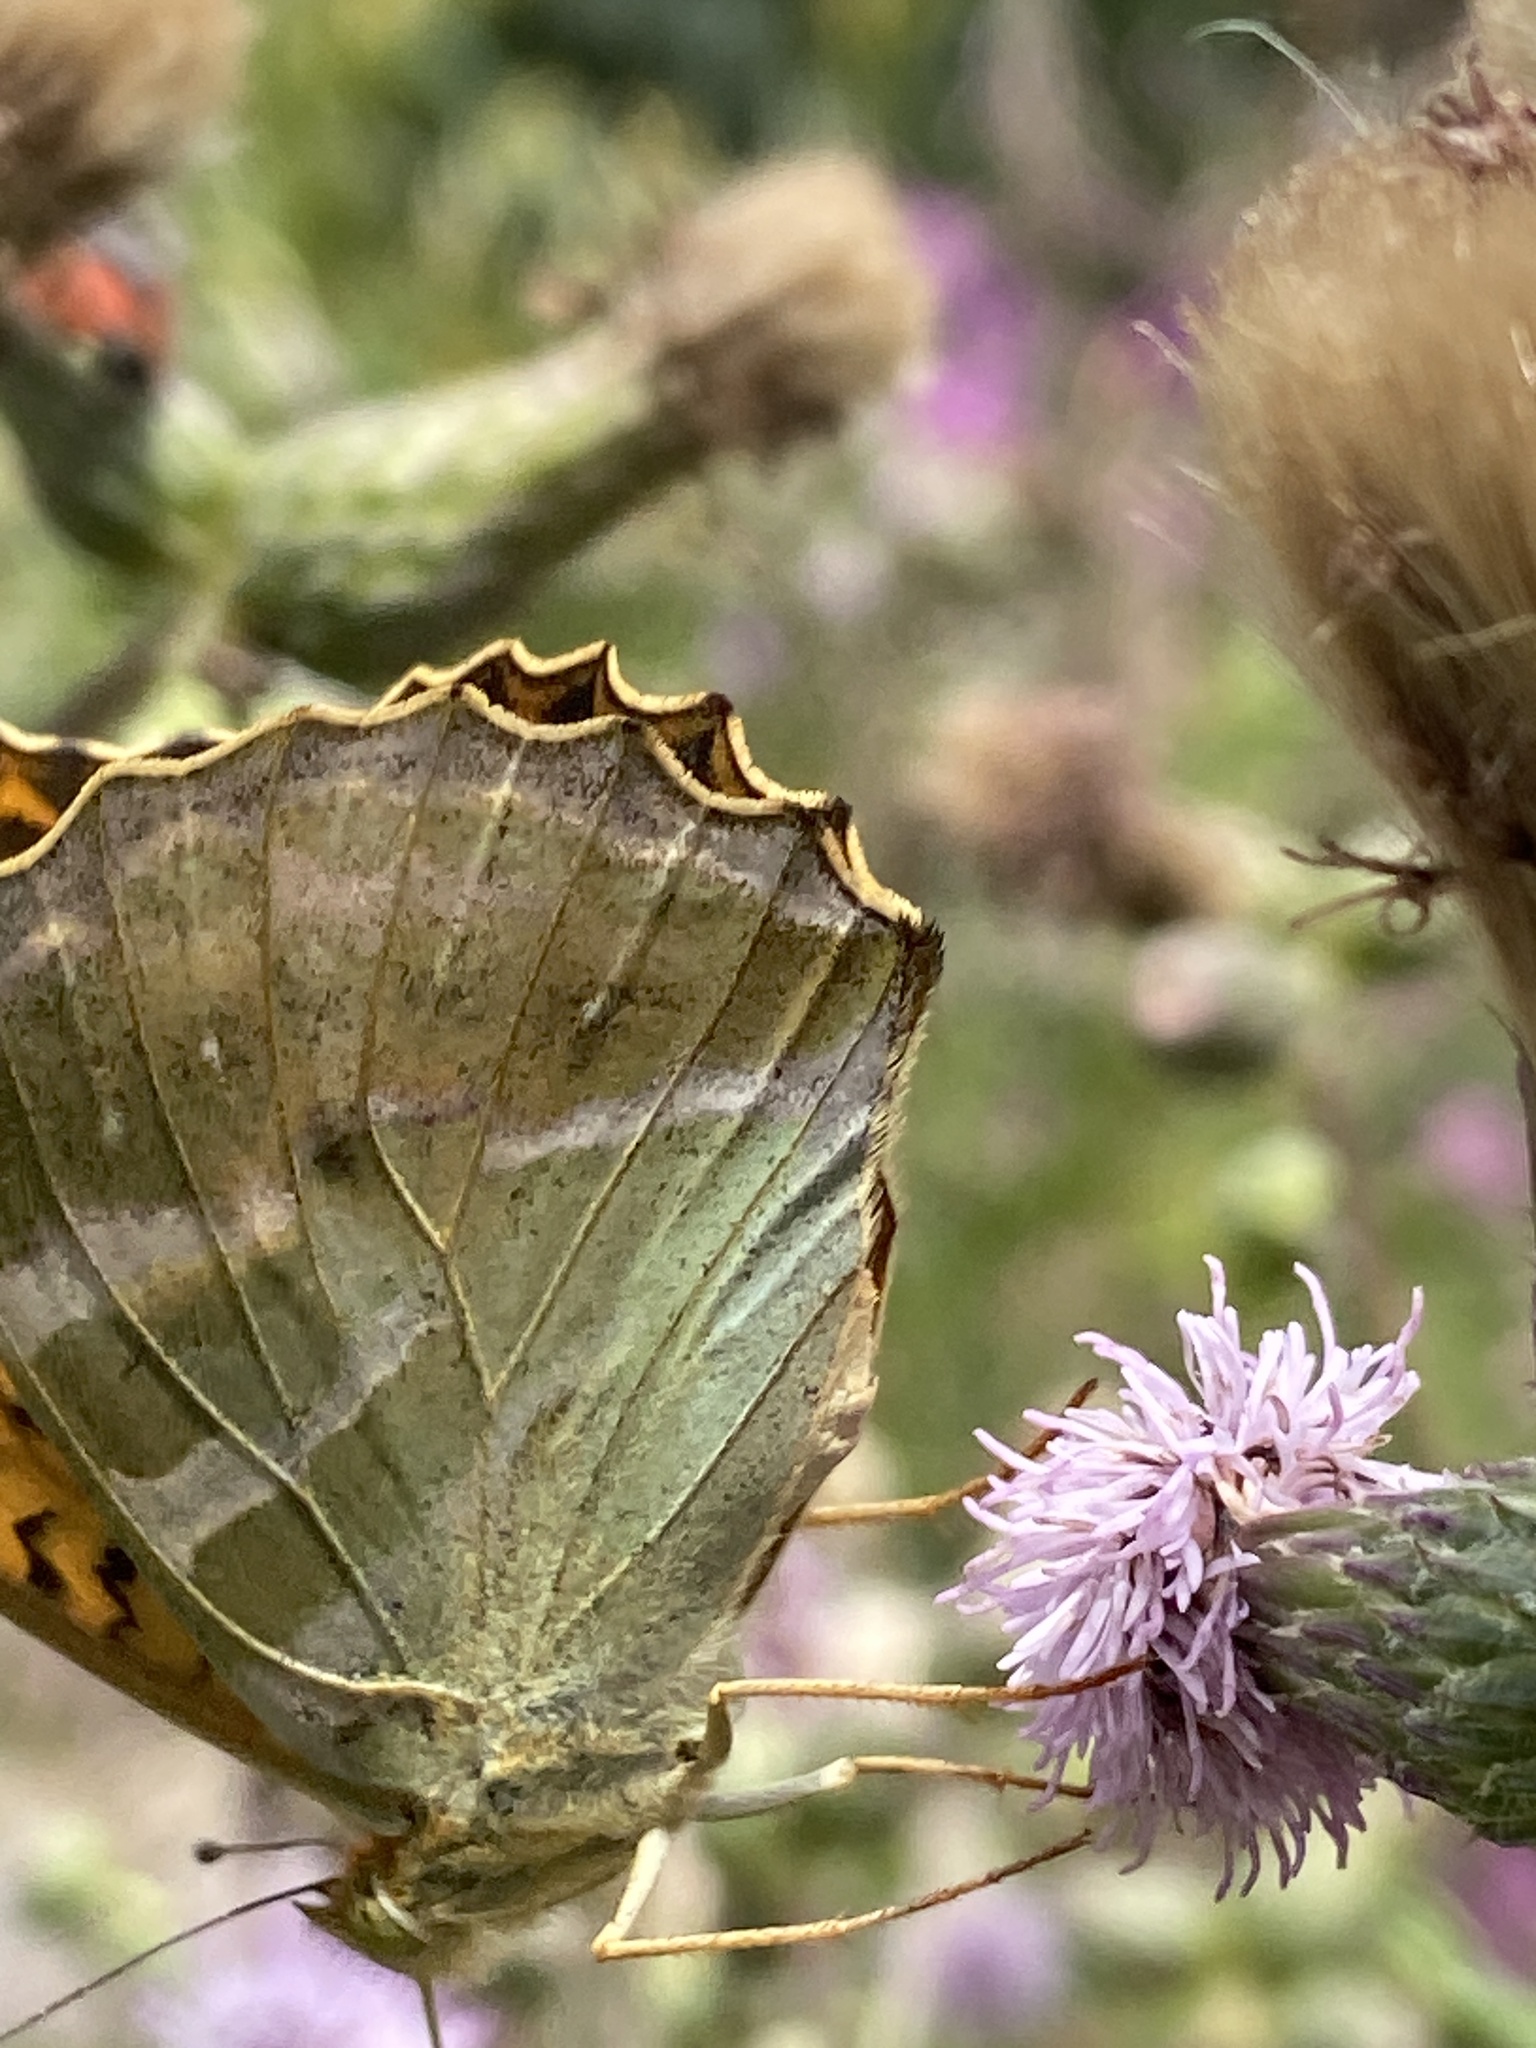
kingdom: Animalia
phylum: Arthropoda
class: Insecta
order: Lepidoptera
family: Nymphalidae
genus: Argynnis
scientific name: Argynnis paphia
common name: Silver-washed fritillary
